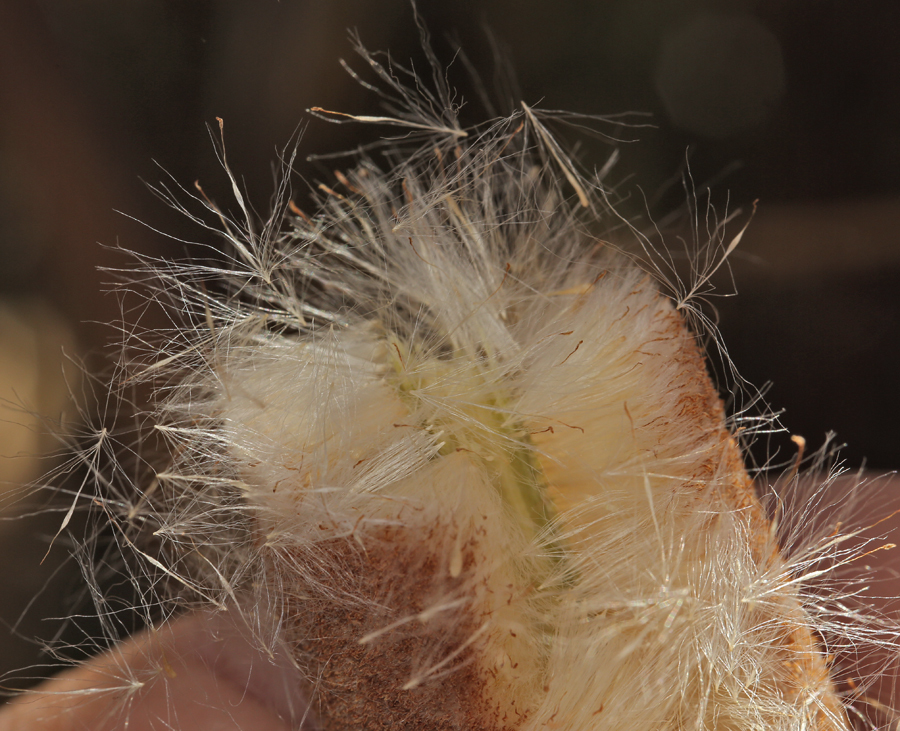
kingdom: Plantae
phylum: Tracheophyta
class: Liliopsida
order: Poales
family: Typhaceae
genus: Typha
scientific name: Typha latifolia
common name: Broadleaf cattail
